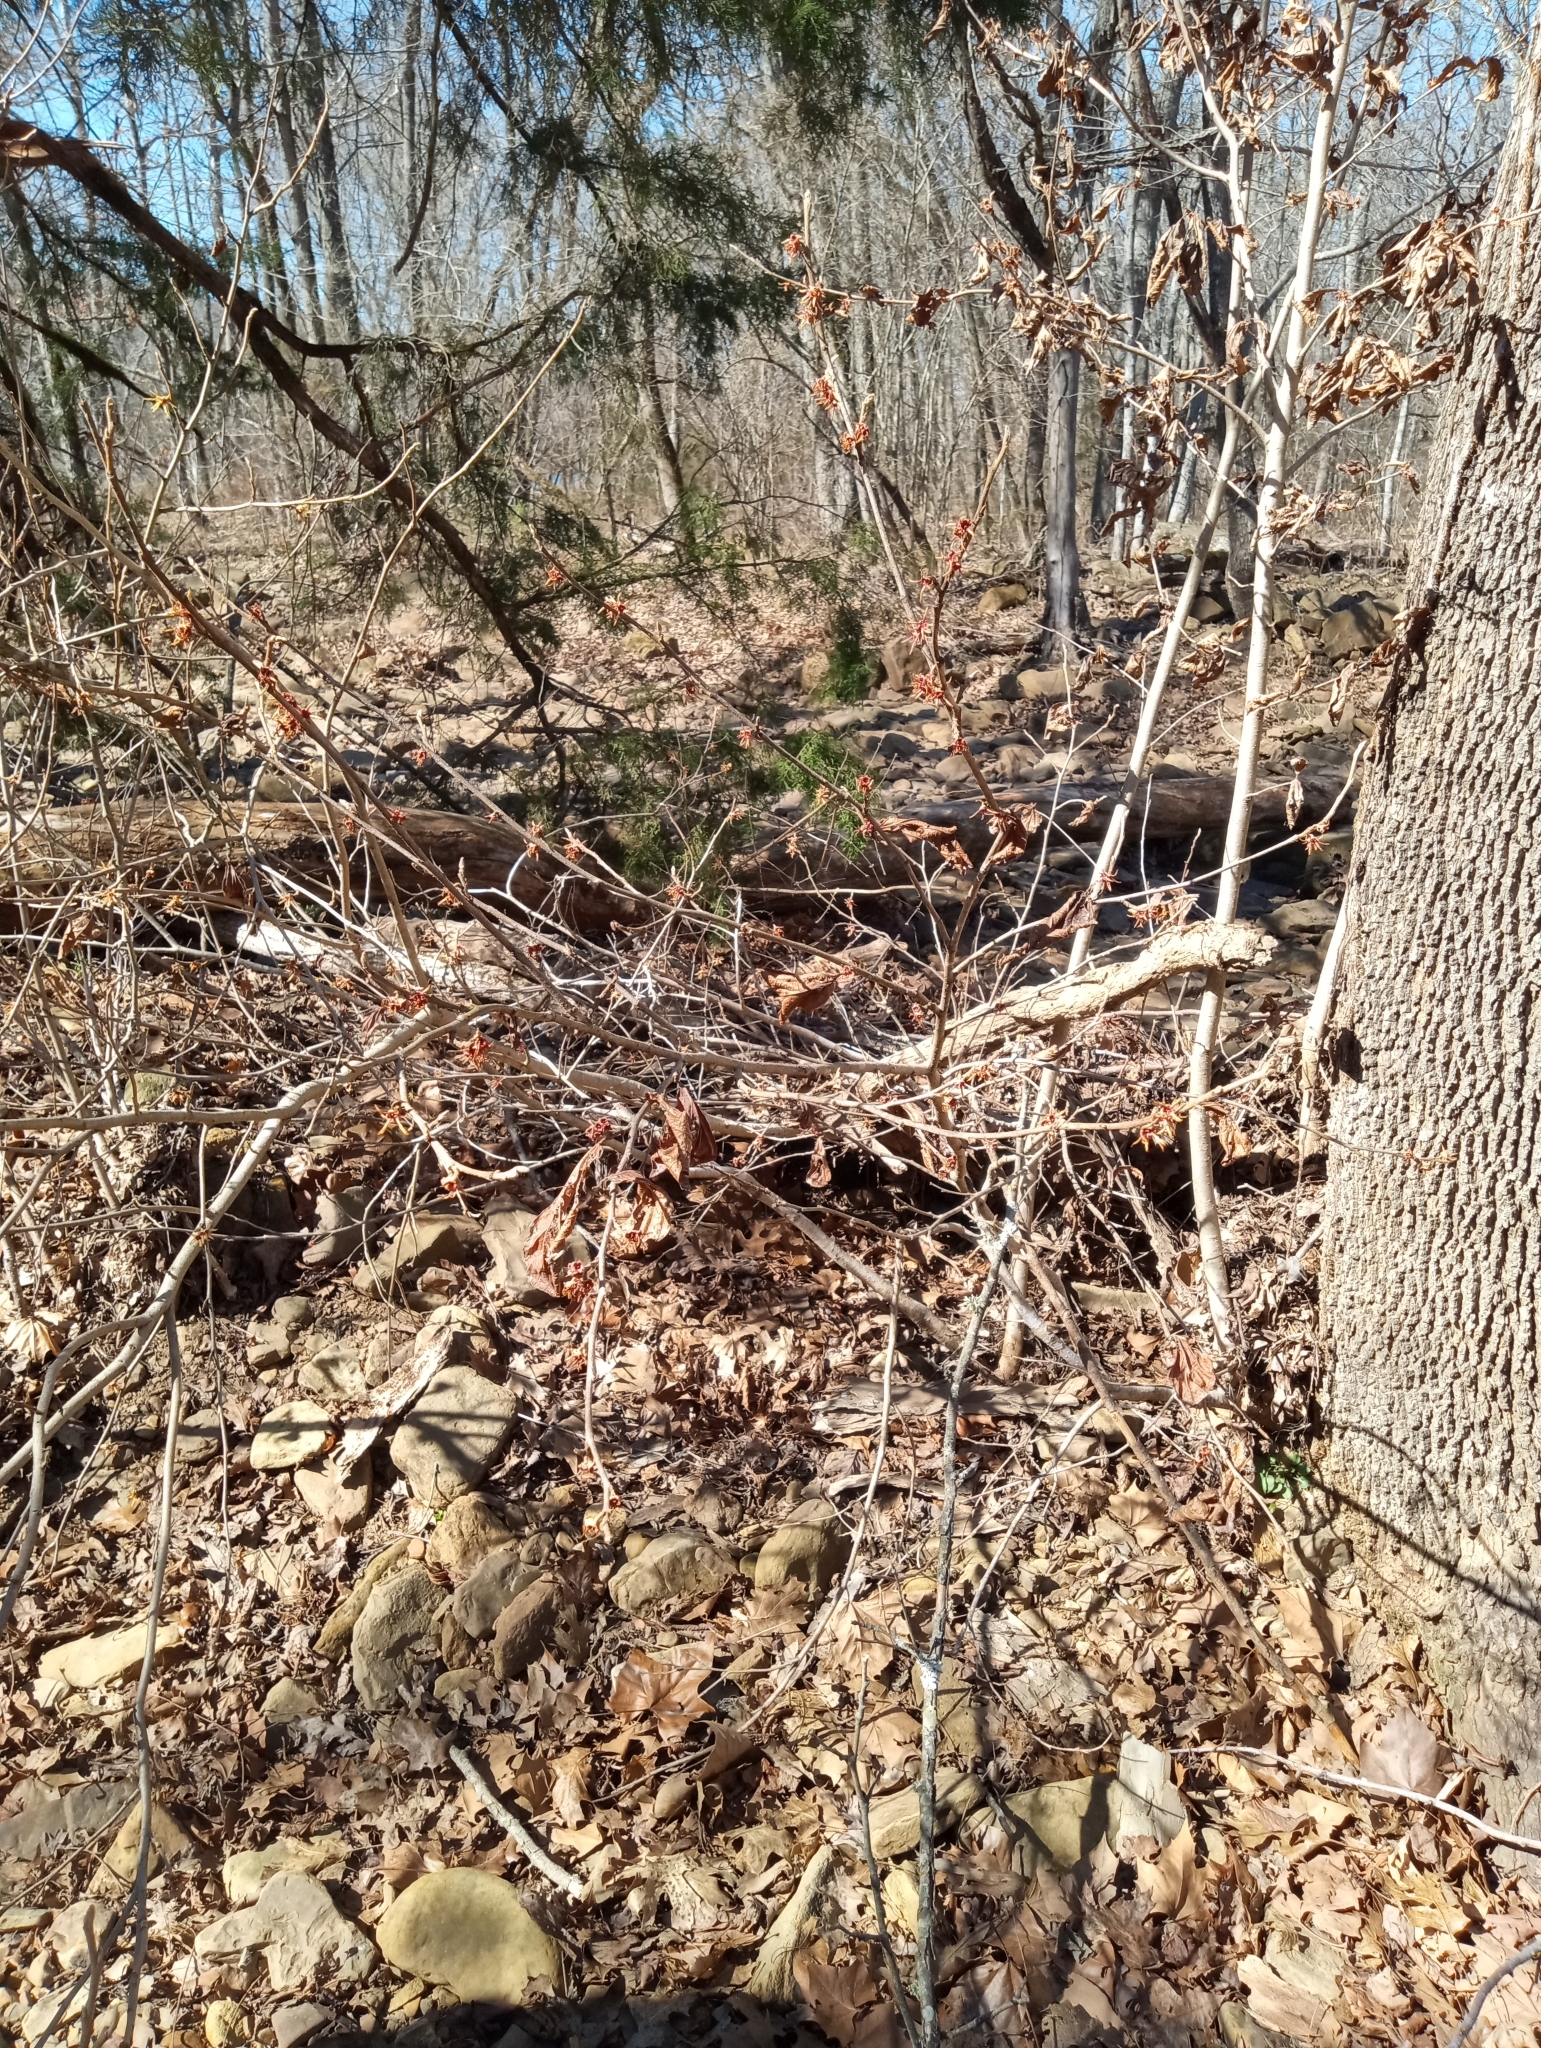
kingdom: Plantae
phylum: Tracheophyta
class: Magnoliopsida
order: Saxifragales
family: Hamamelidaceae
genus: Hamamelis
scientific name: Hamamelis vernalis
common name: Ozark witch-hazel
